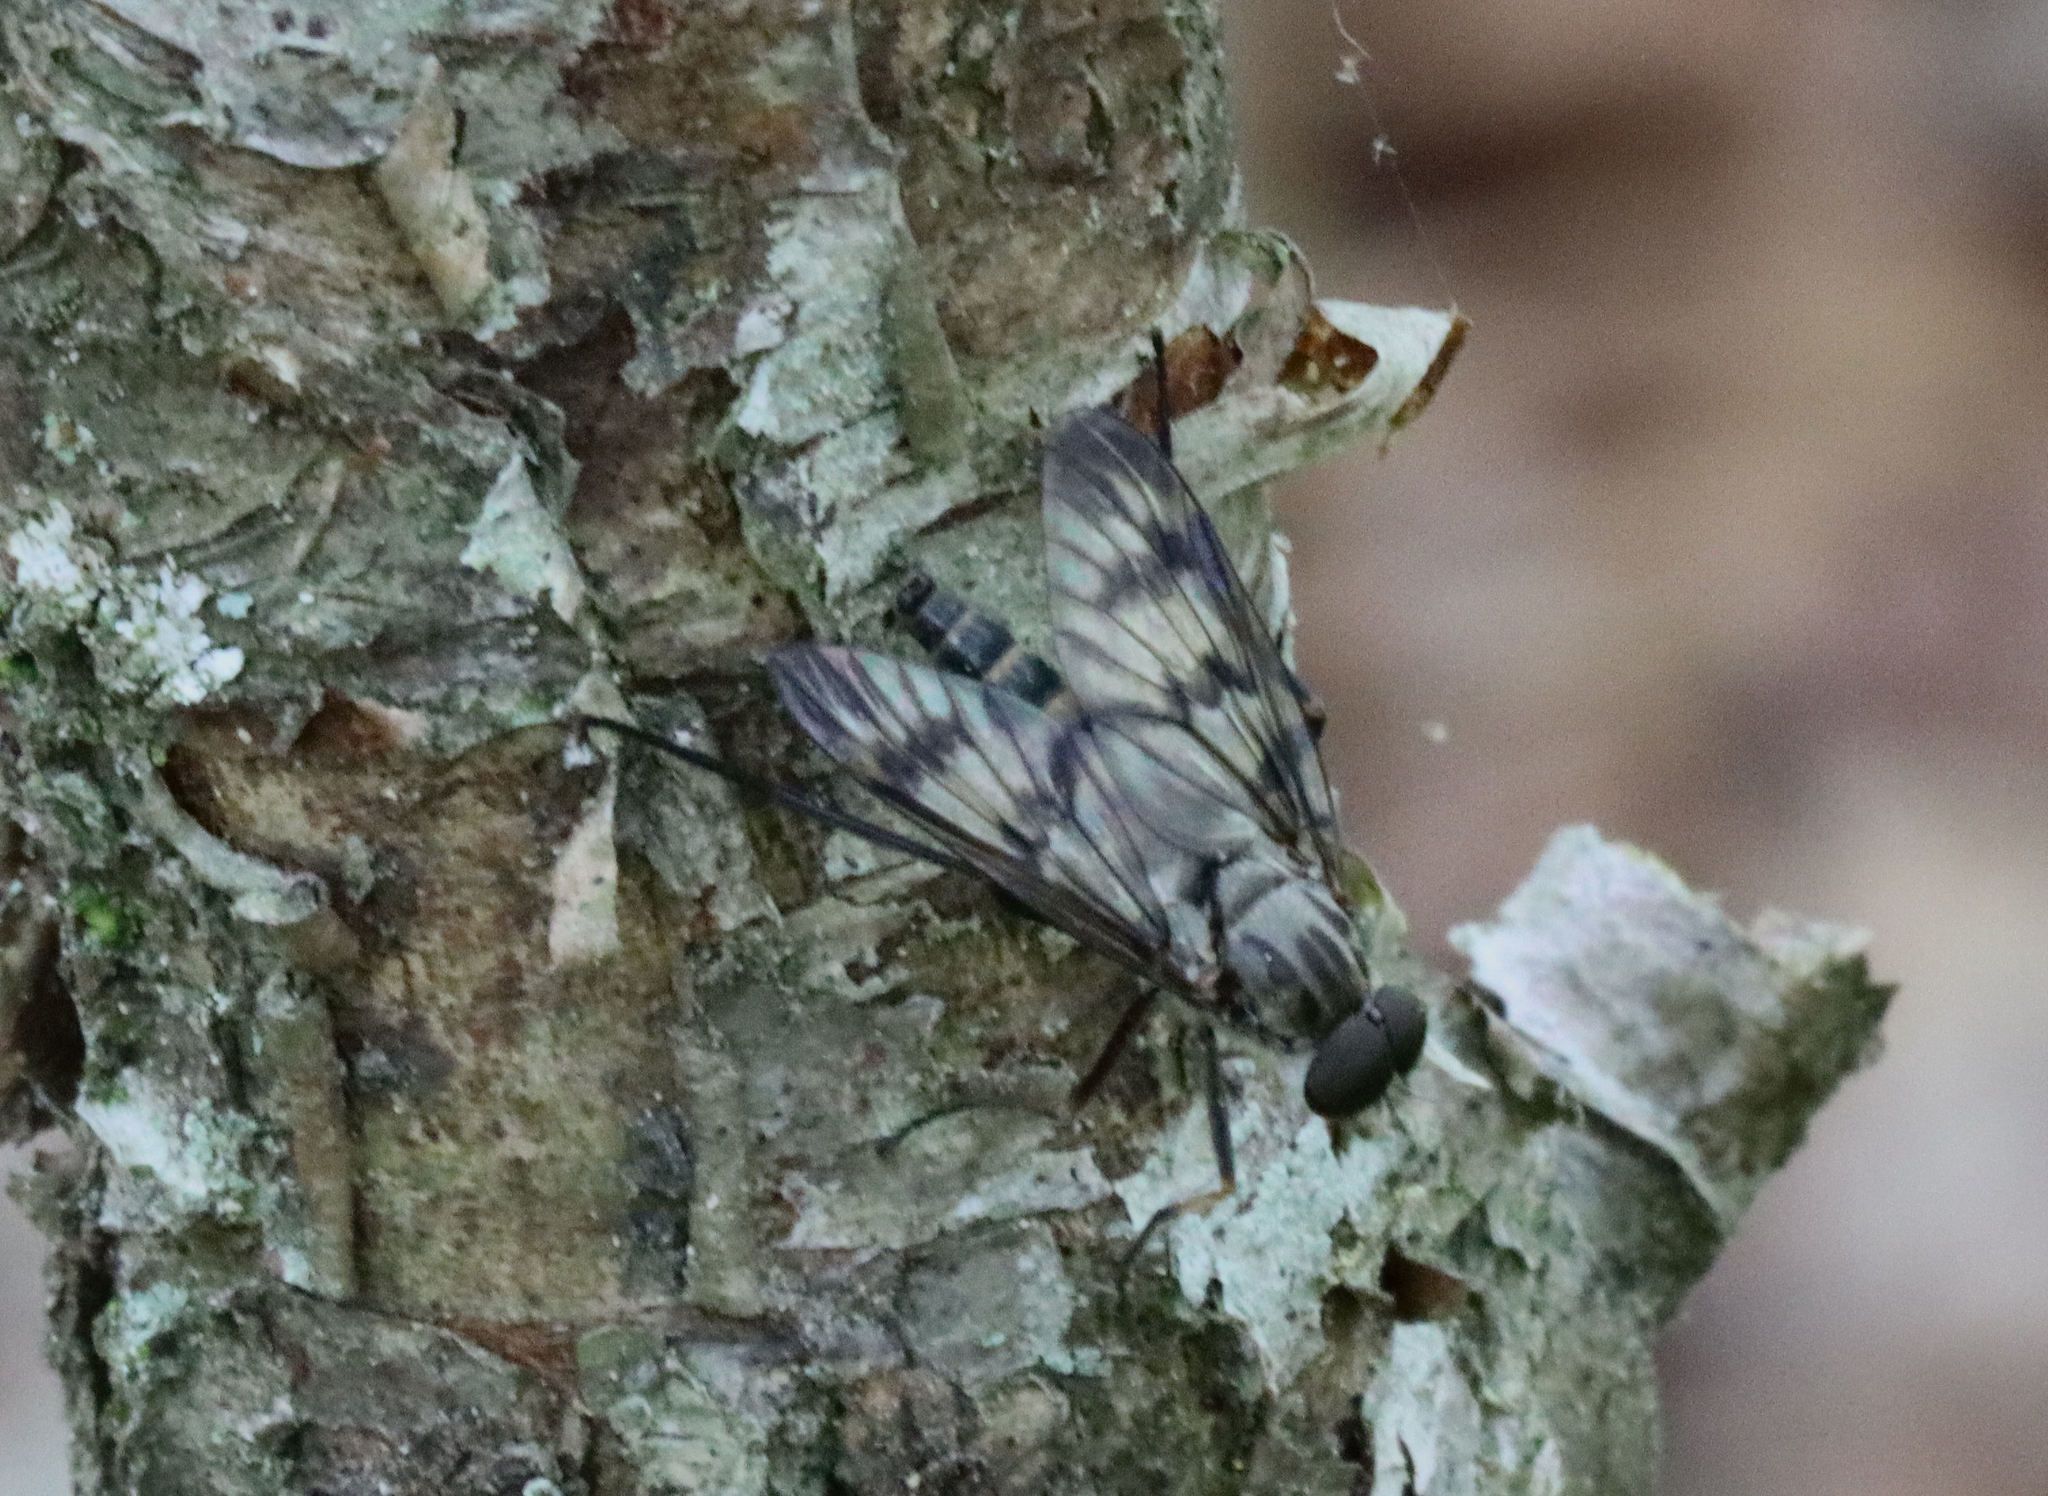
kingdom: Animalia
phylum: Arthropoda
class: Insecta
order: Diptera
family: Rhagionidae
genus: Rhagio
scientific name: Rhagio mystaceus
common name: Common snipe fly
